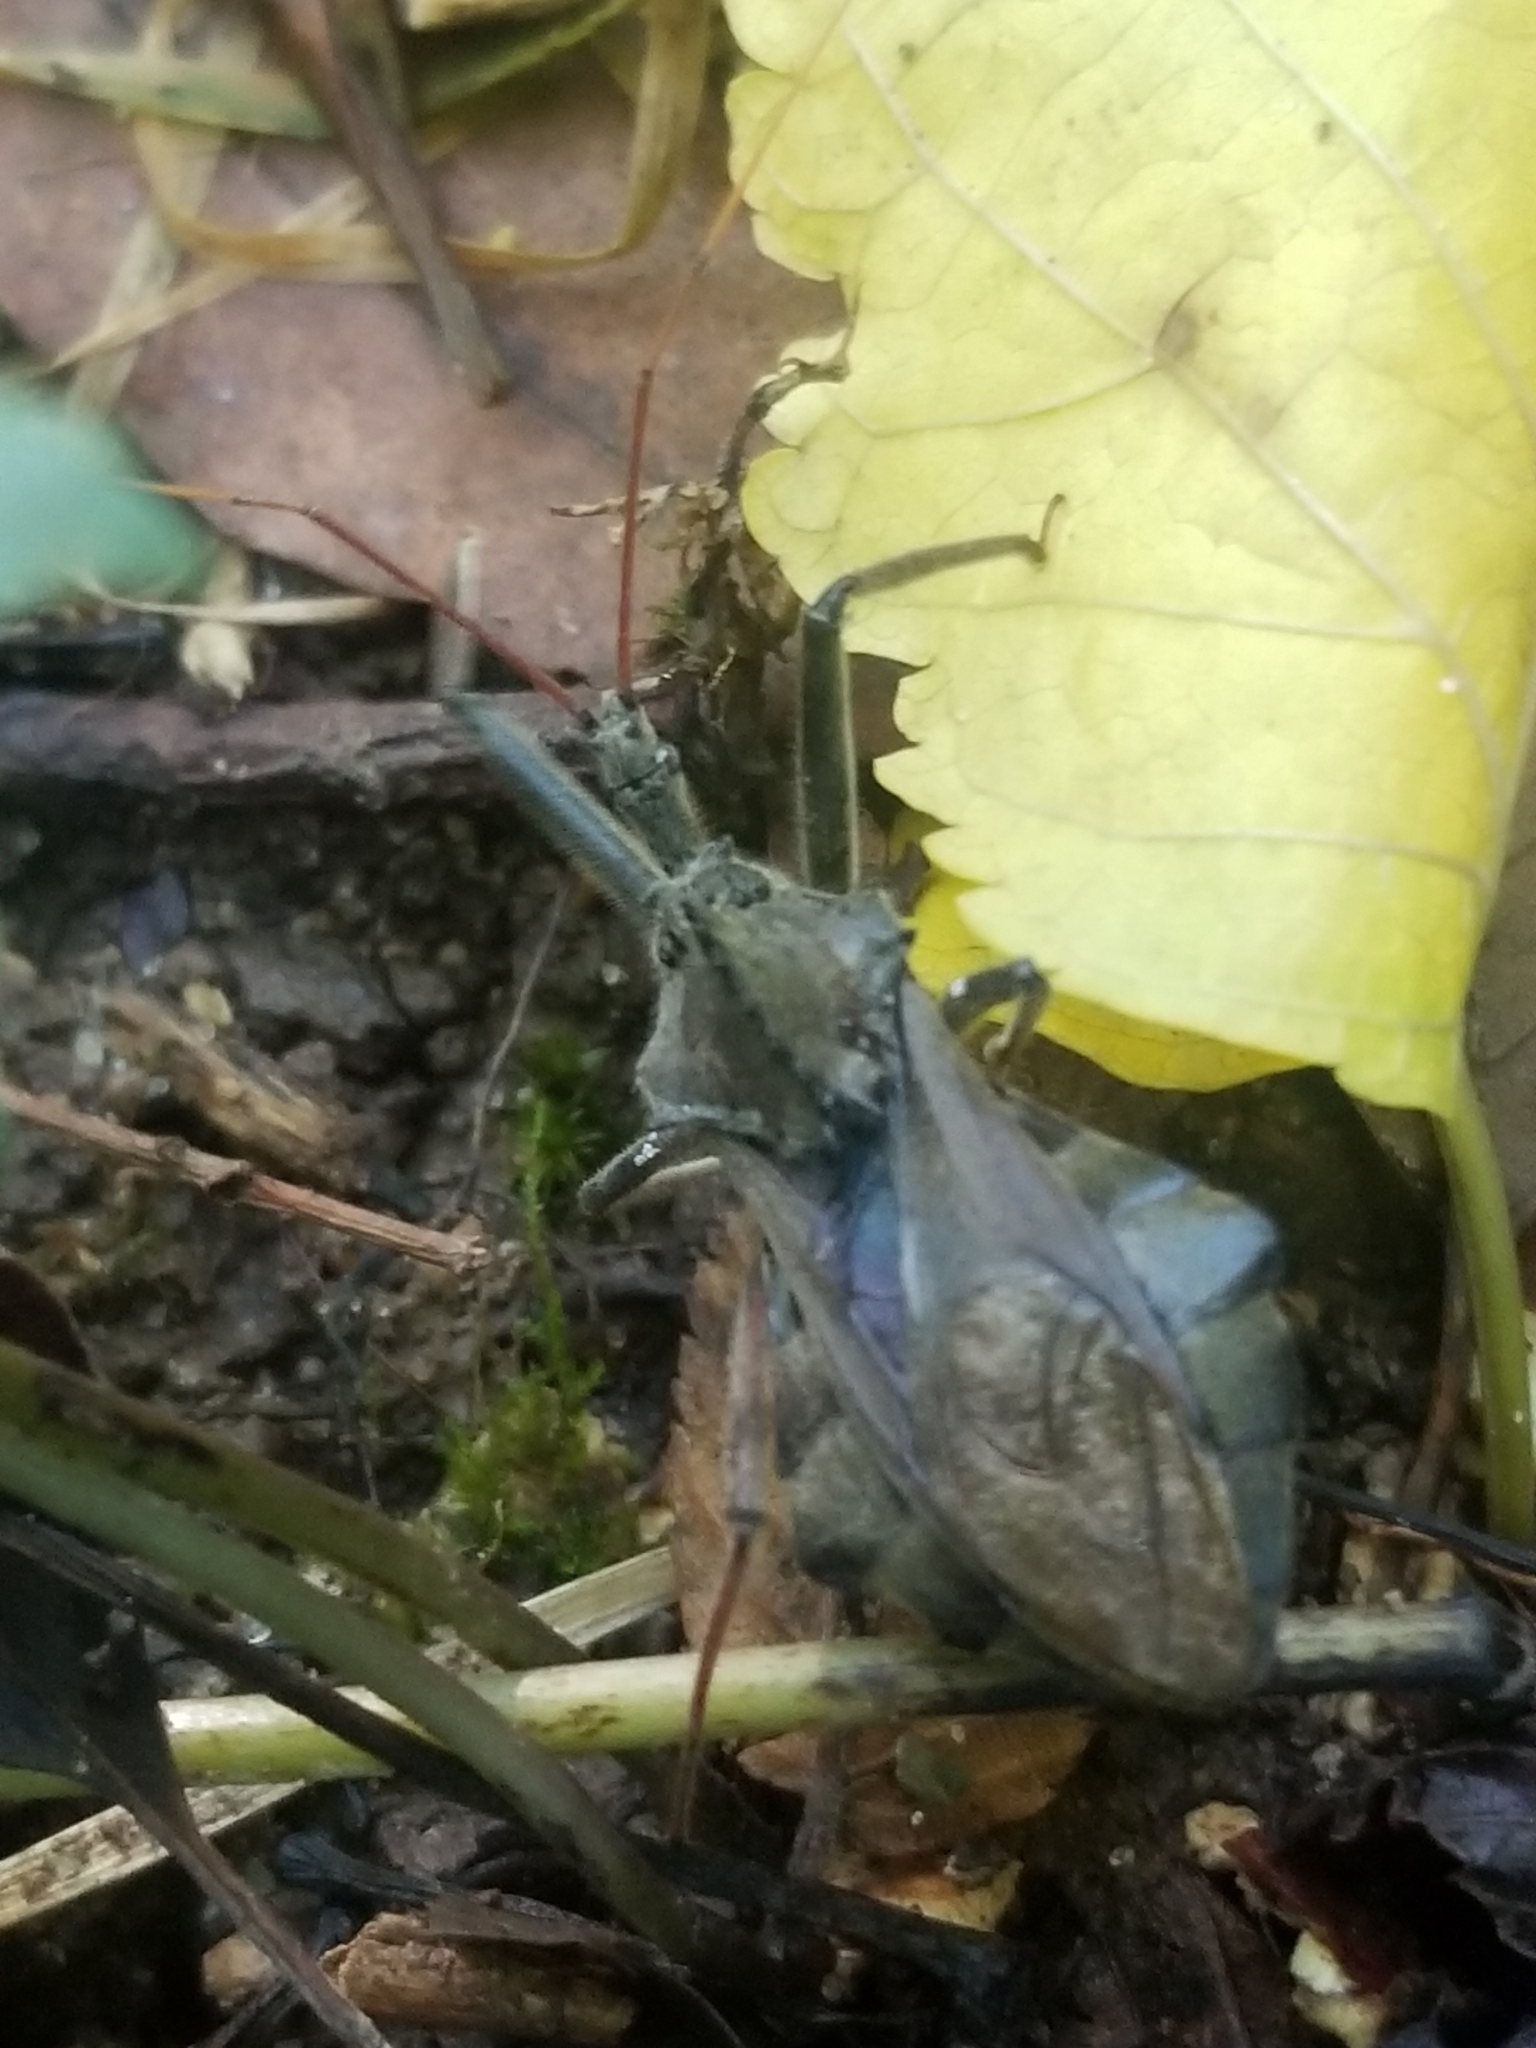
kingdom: Animalia
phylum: Arthropoda
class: Insecta
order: Hemiptera
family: Reduviidae
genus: Arilus
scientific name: Arilus cristatus
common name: North american wheel bug
